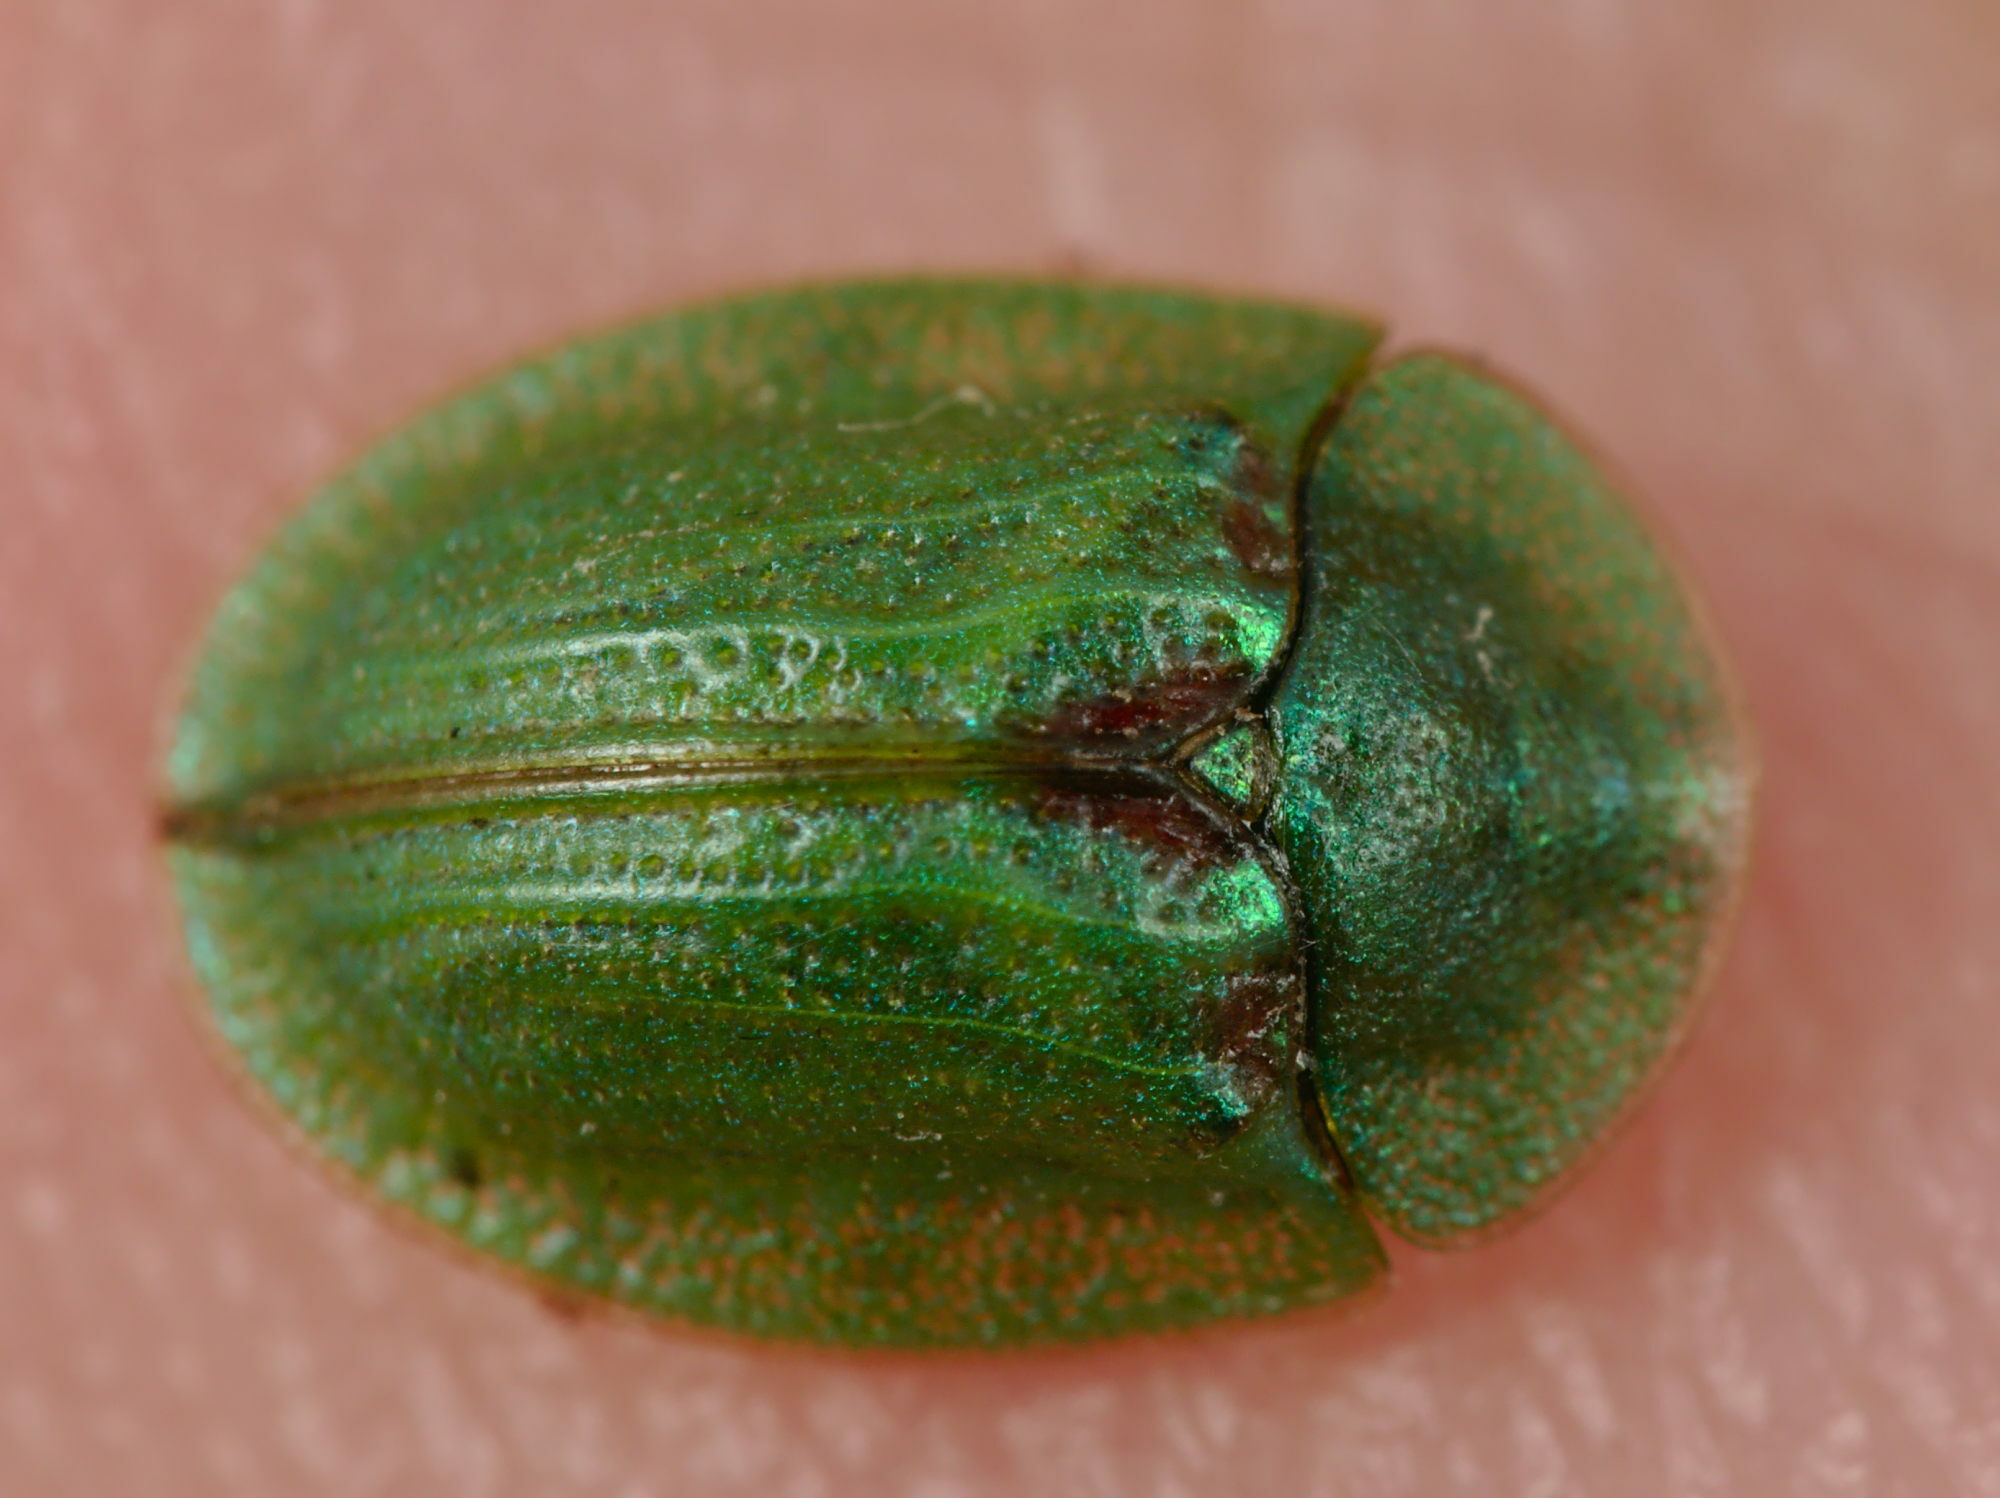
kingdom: Animalia
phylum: Arthropoda
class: Insecta
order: Coleoptera
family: Chrysomelidae
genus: Cassida
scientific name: Cassida stigmatica
